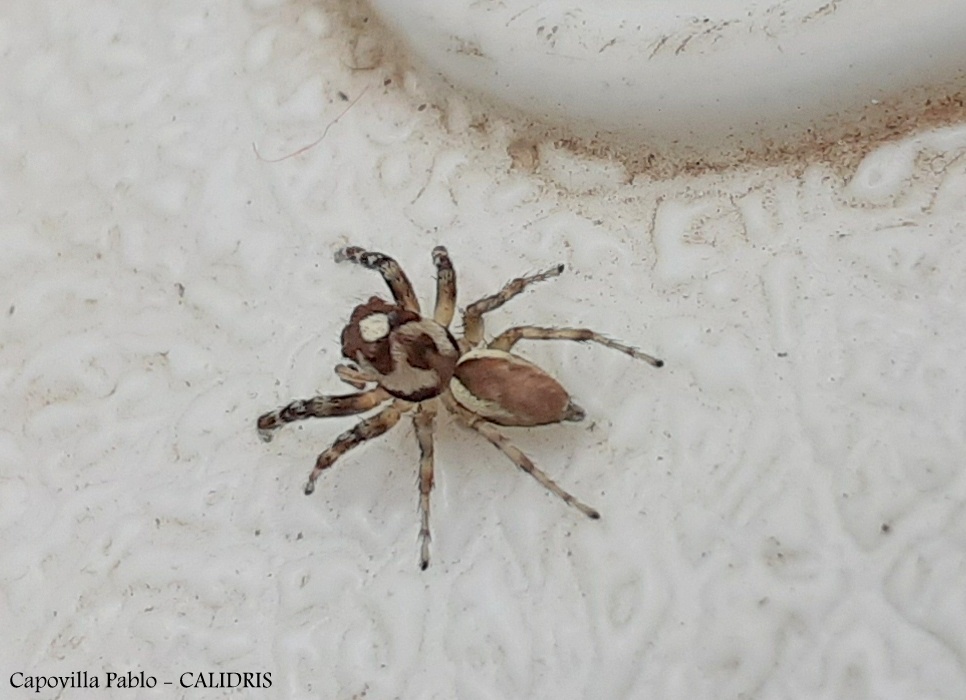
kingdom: Animalia
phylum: Arthropoda
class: Arachnida
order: Araneae
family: Salticidae
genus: Chira
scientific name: Chira gounellei
